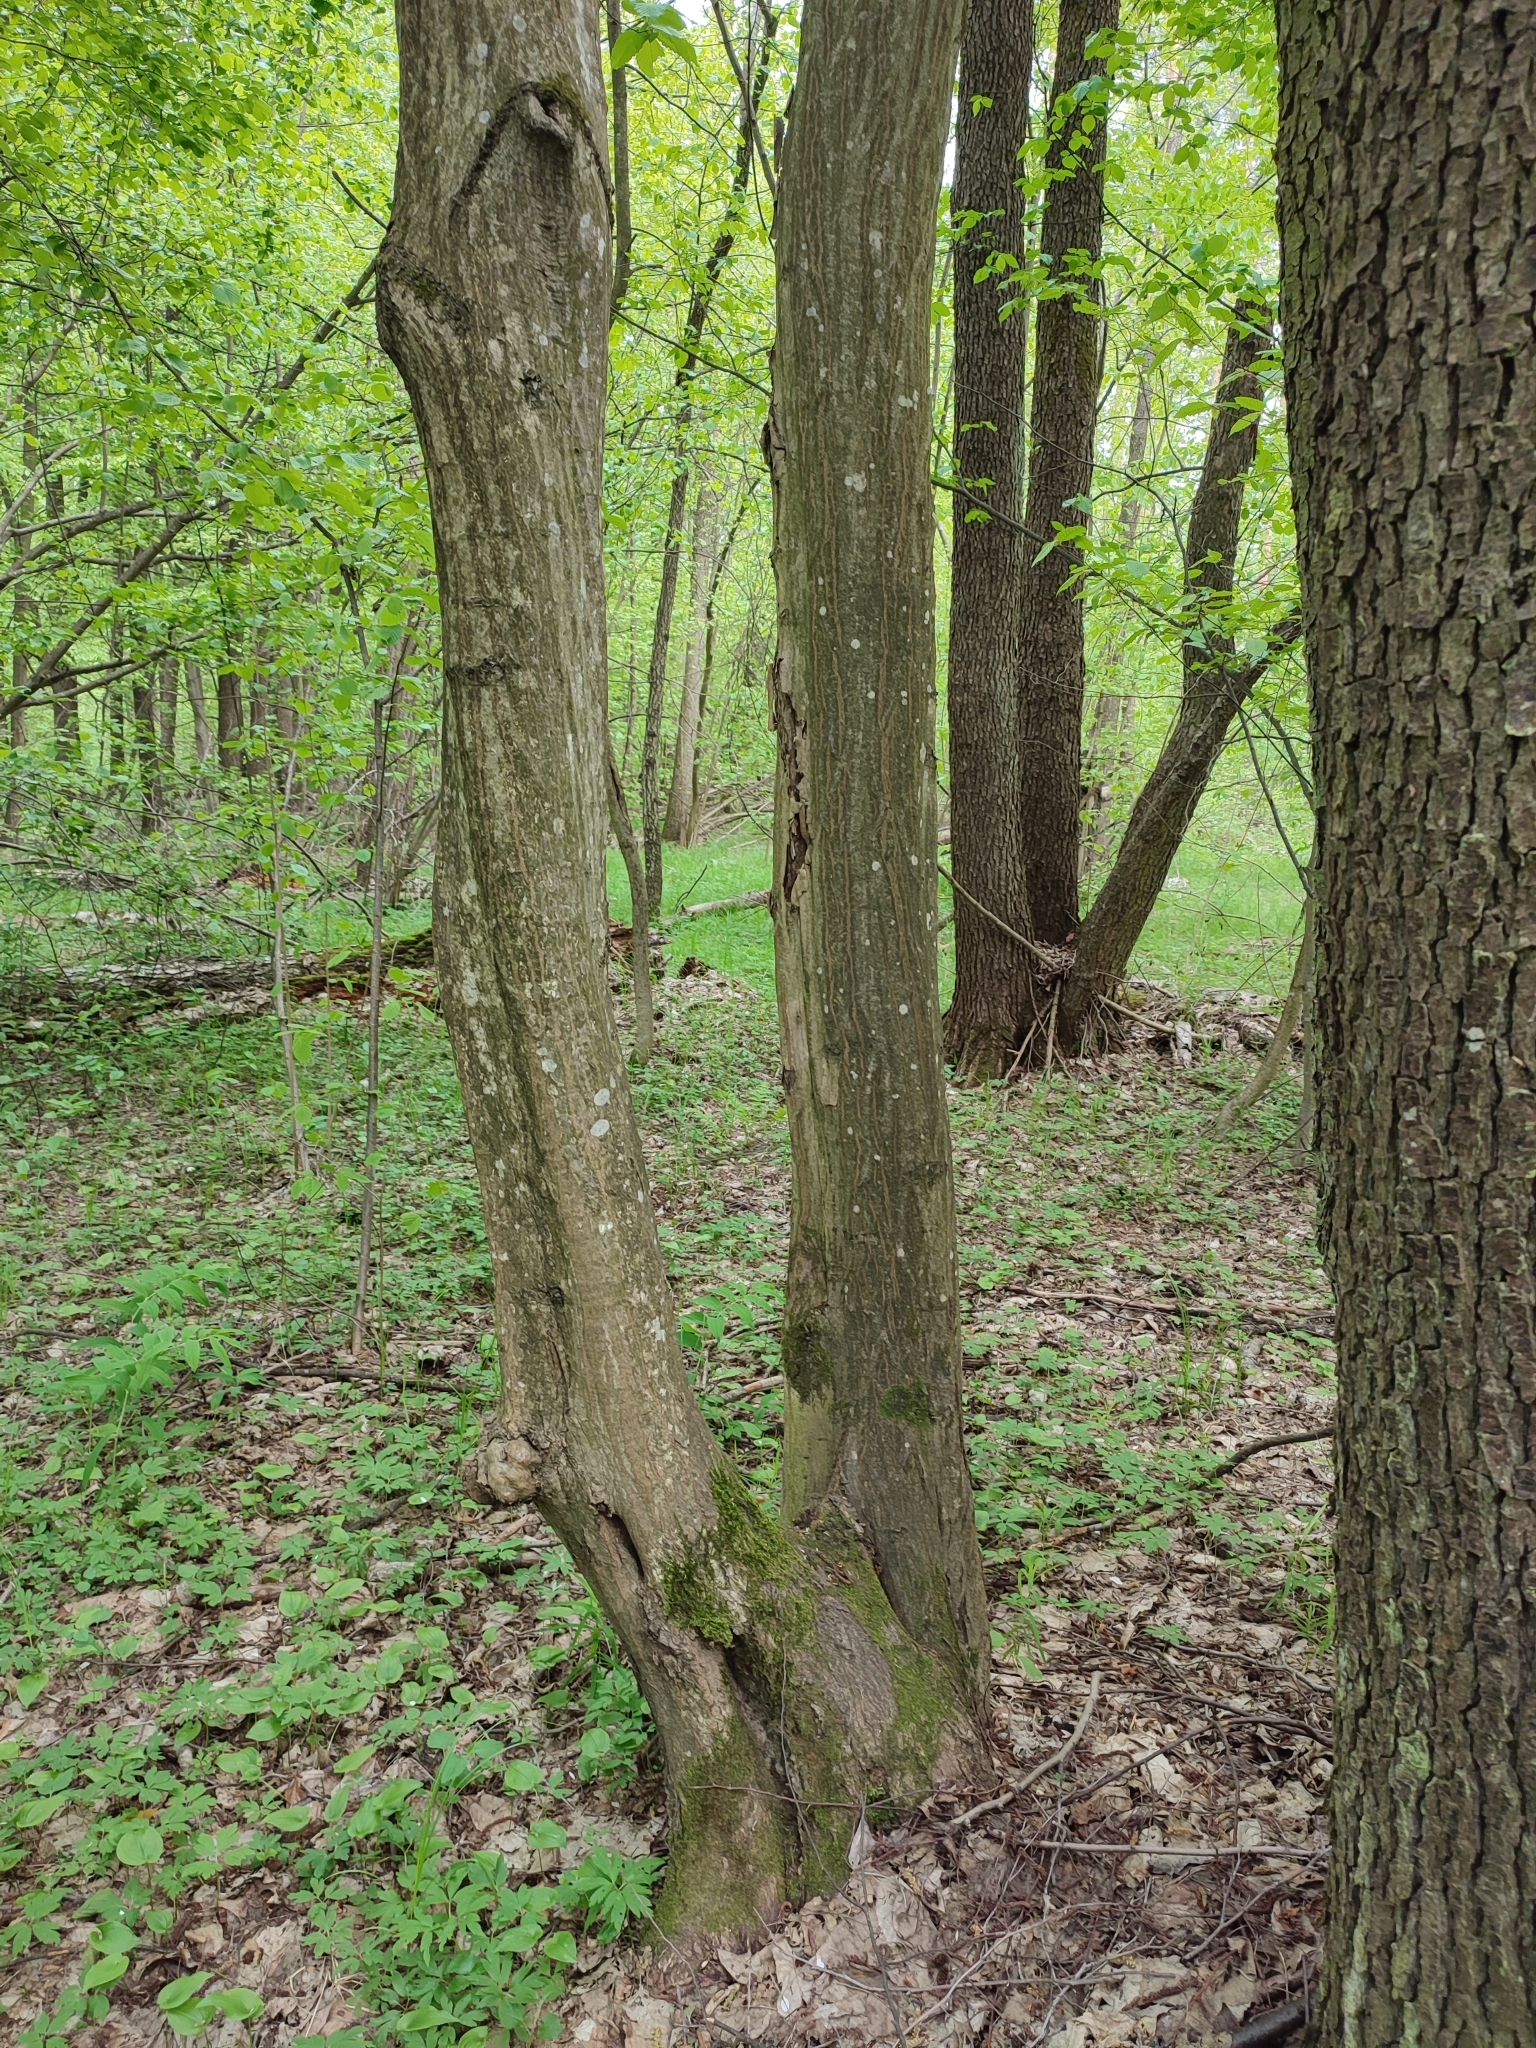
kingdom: Plantae
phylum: Tracheophyta
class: Magnoliopsida
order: Fagales
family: Betulaceae
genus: Carpinus
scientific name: Carpinus betulus
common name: Hornbeam
